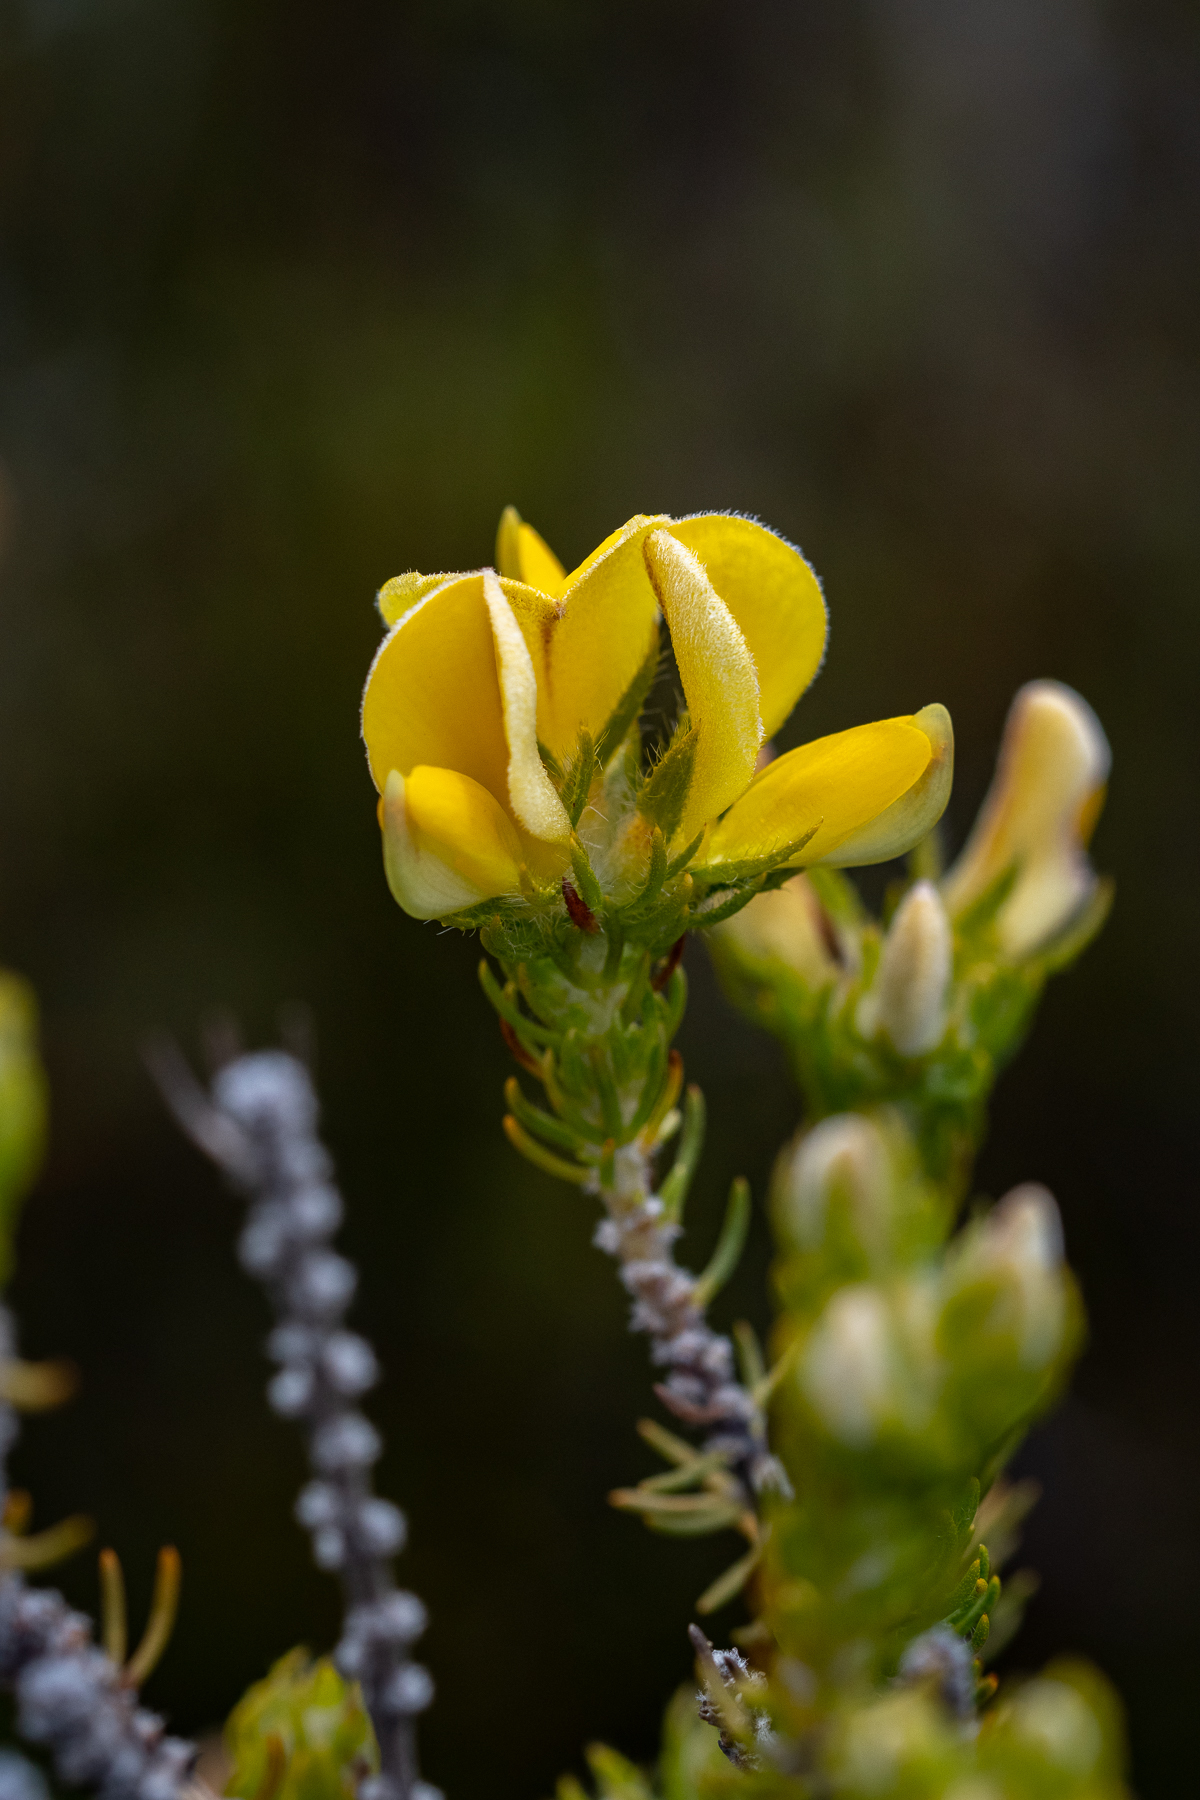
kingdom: Plantae
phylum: Tracheophyta
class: Magnoliopsida
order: Fabales
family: Fabaceae
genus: Aspalathus
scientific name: Aspalathus ciliaris
